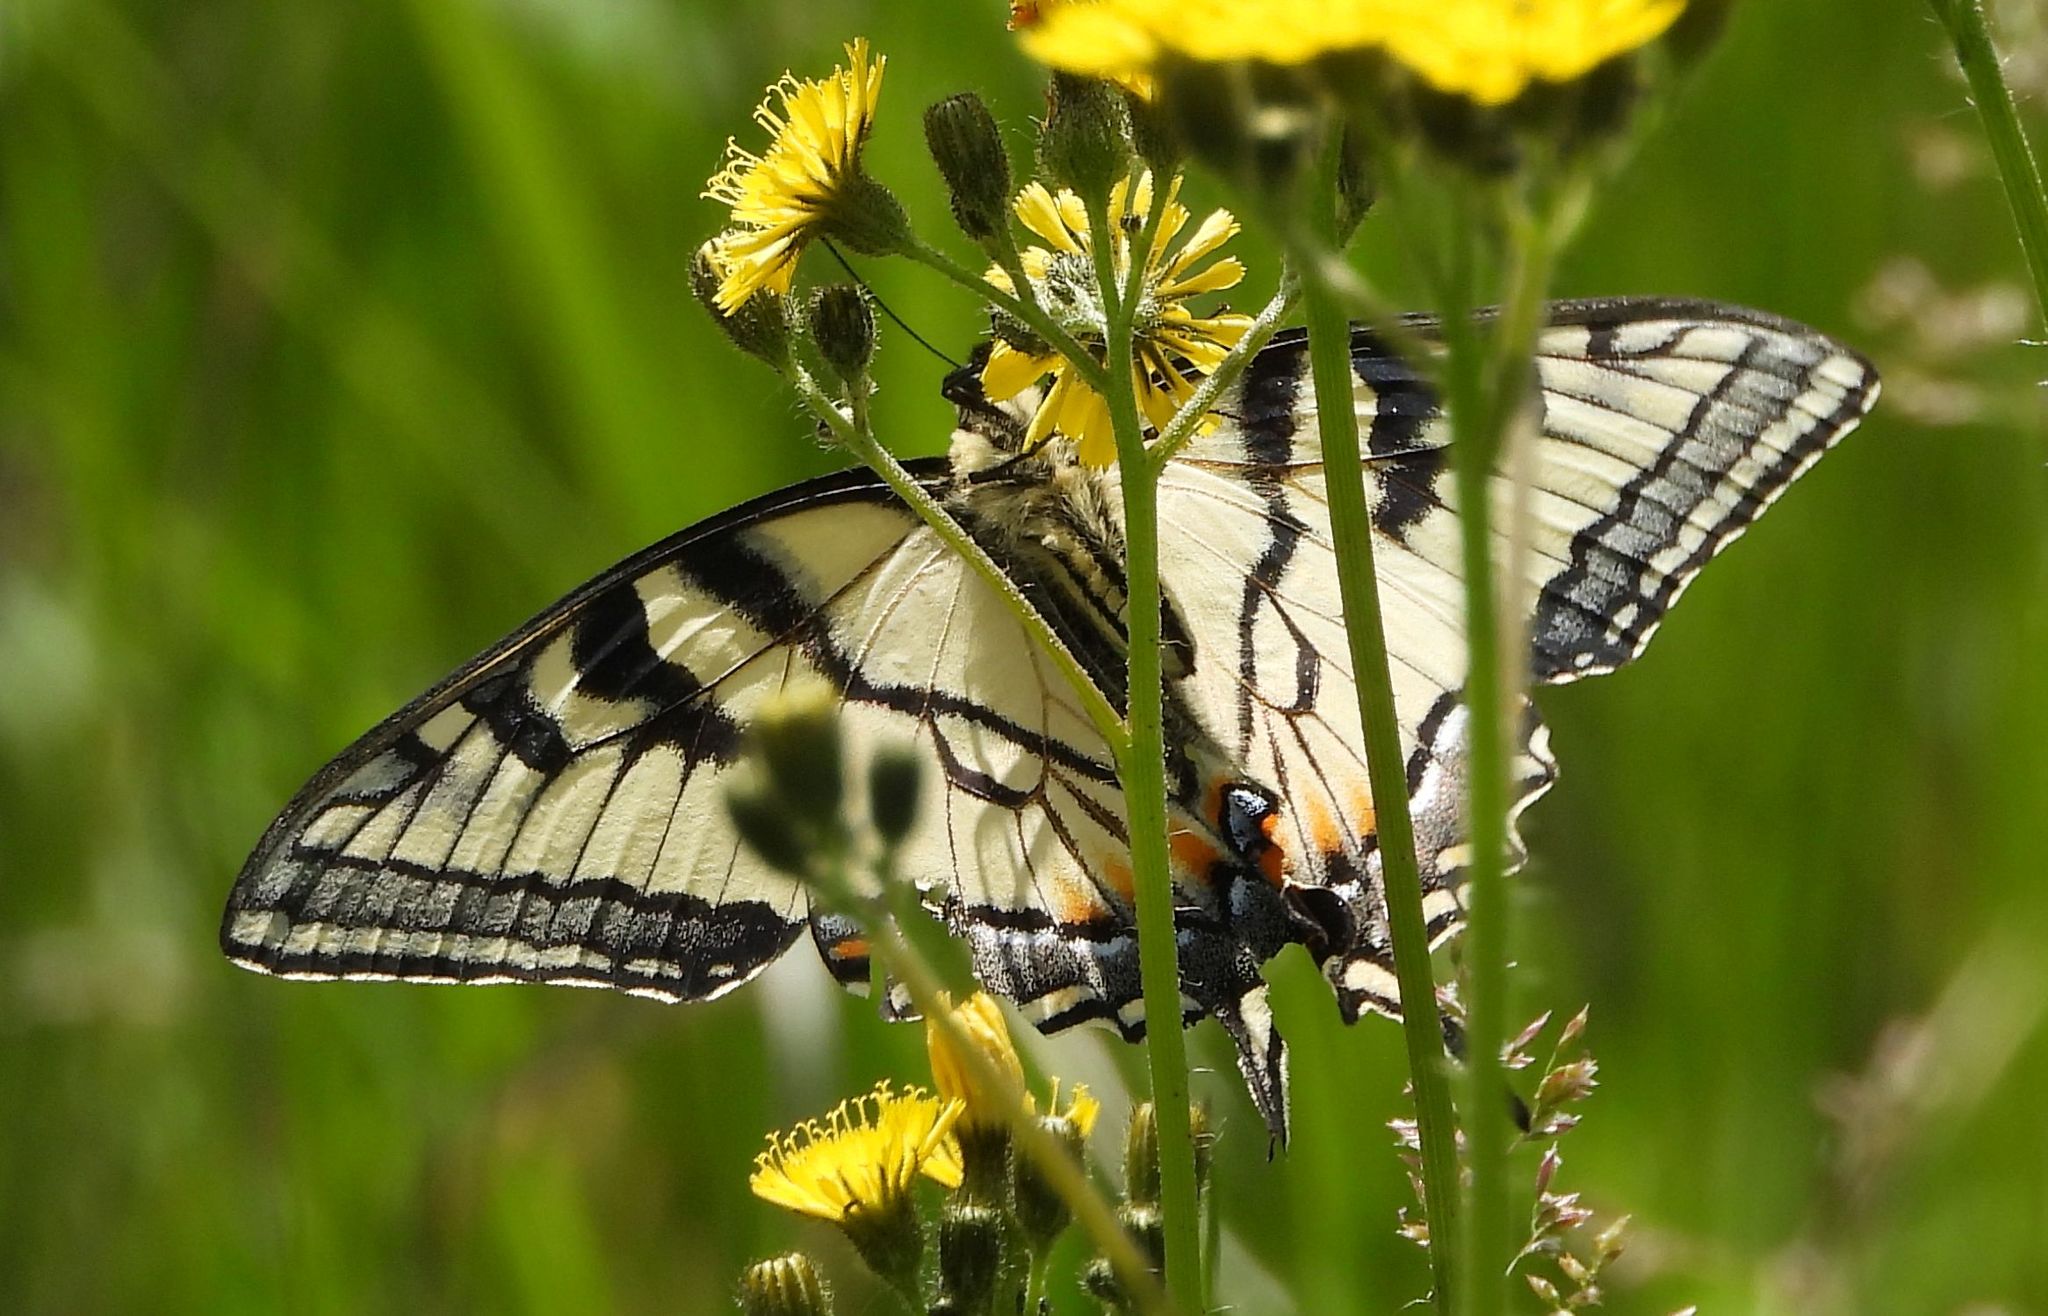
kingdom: Animalia
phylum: Arthropoda
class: Insecta
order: Lepidoptera
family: Papilionidae
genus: Papilio
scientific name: Papilio canadensis
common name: Canadian tiger swallowtail
